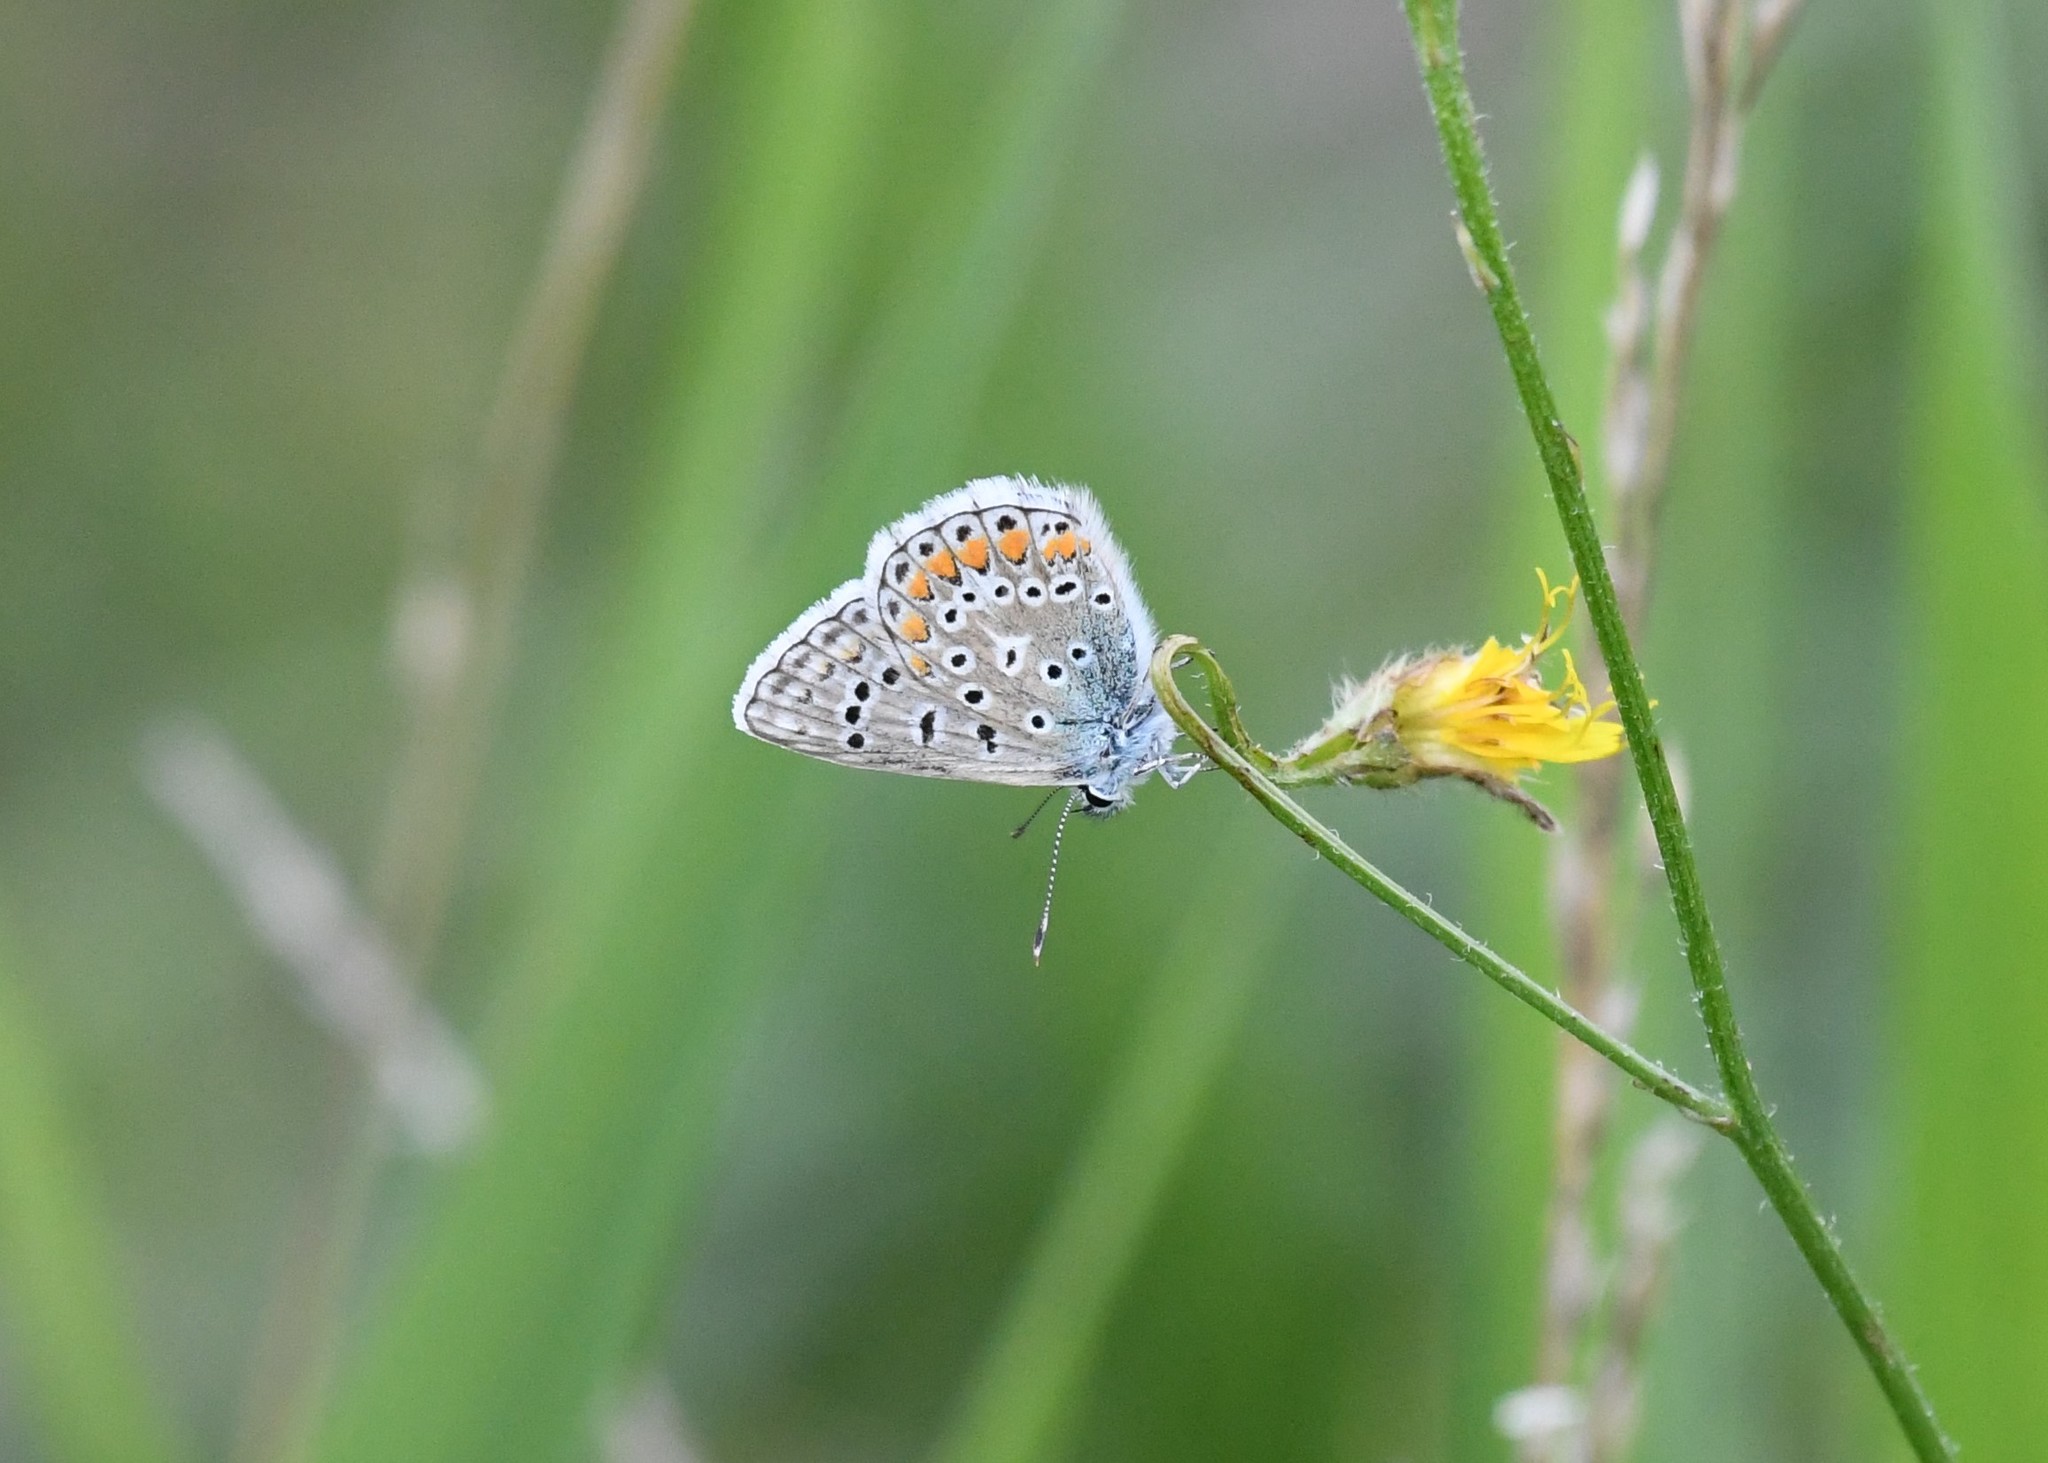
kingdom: Animalia
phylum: Arthropoda
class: Insecta
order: Lepidoptera
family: Lycaenidae
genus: Polyommatus
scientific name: Polyommatus icarus
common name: Common blue
